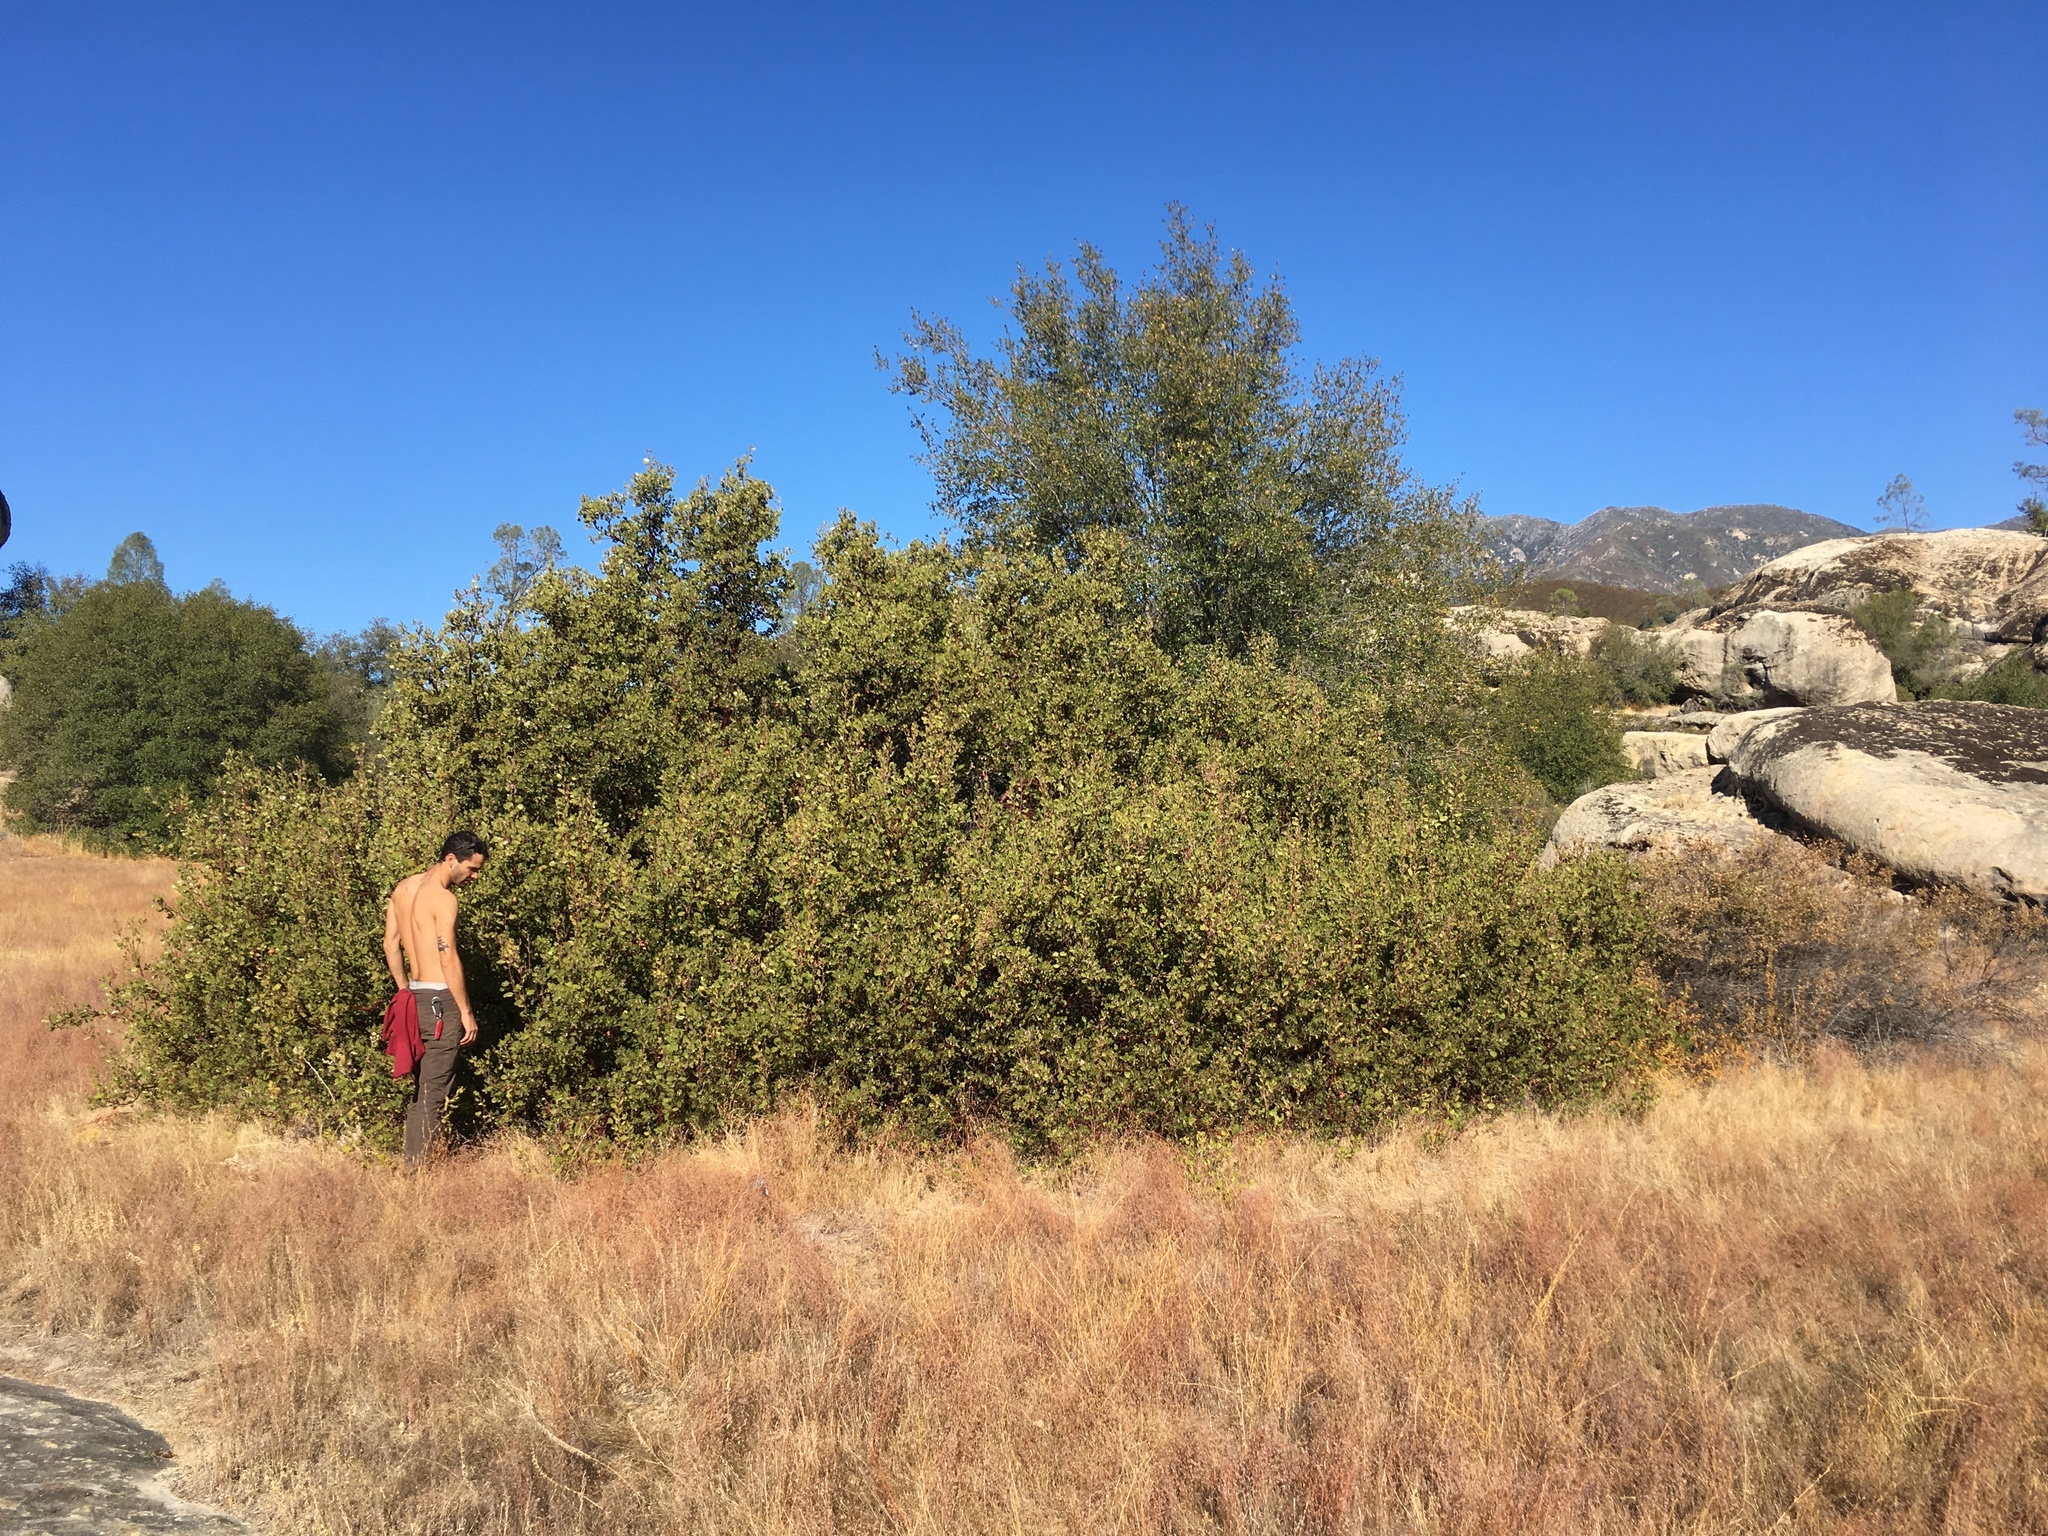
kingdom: Plantae
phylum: Tracheophyta
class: Magnoliopsida
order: Ericales
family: Ericaceae
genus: Arctostaphylos
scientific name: Arctostaphylos pungens
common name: Mexican manzanita
